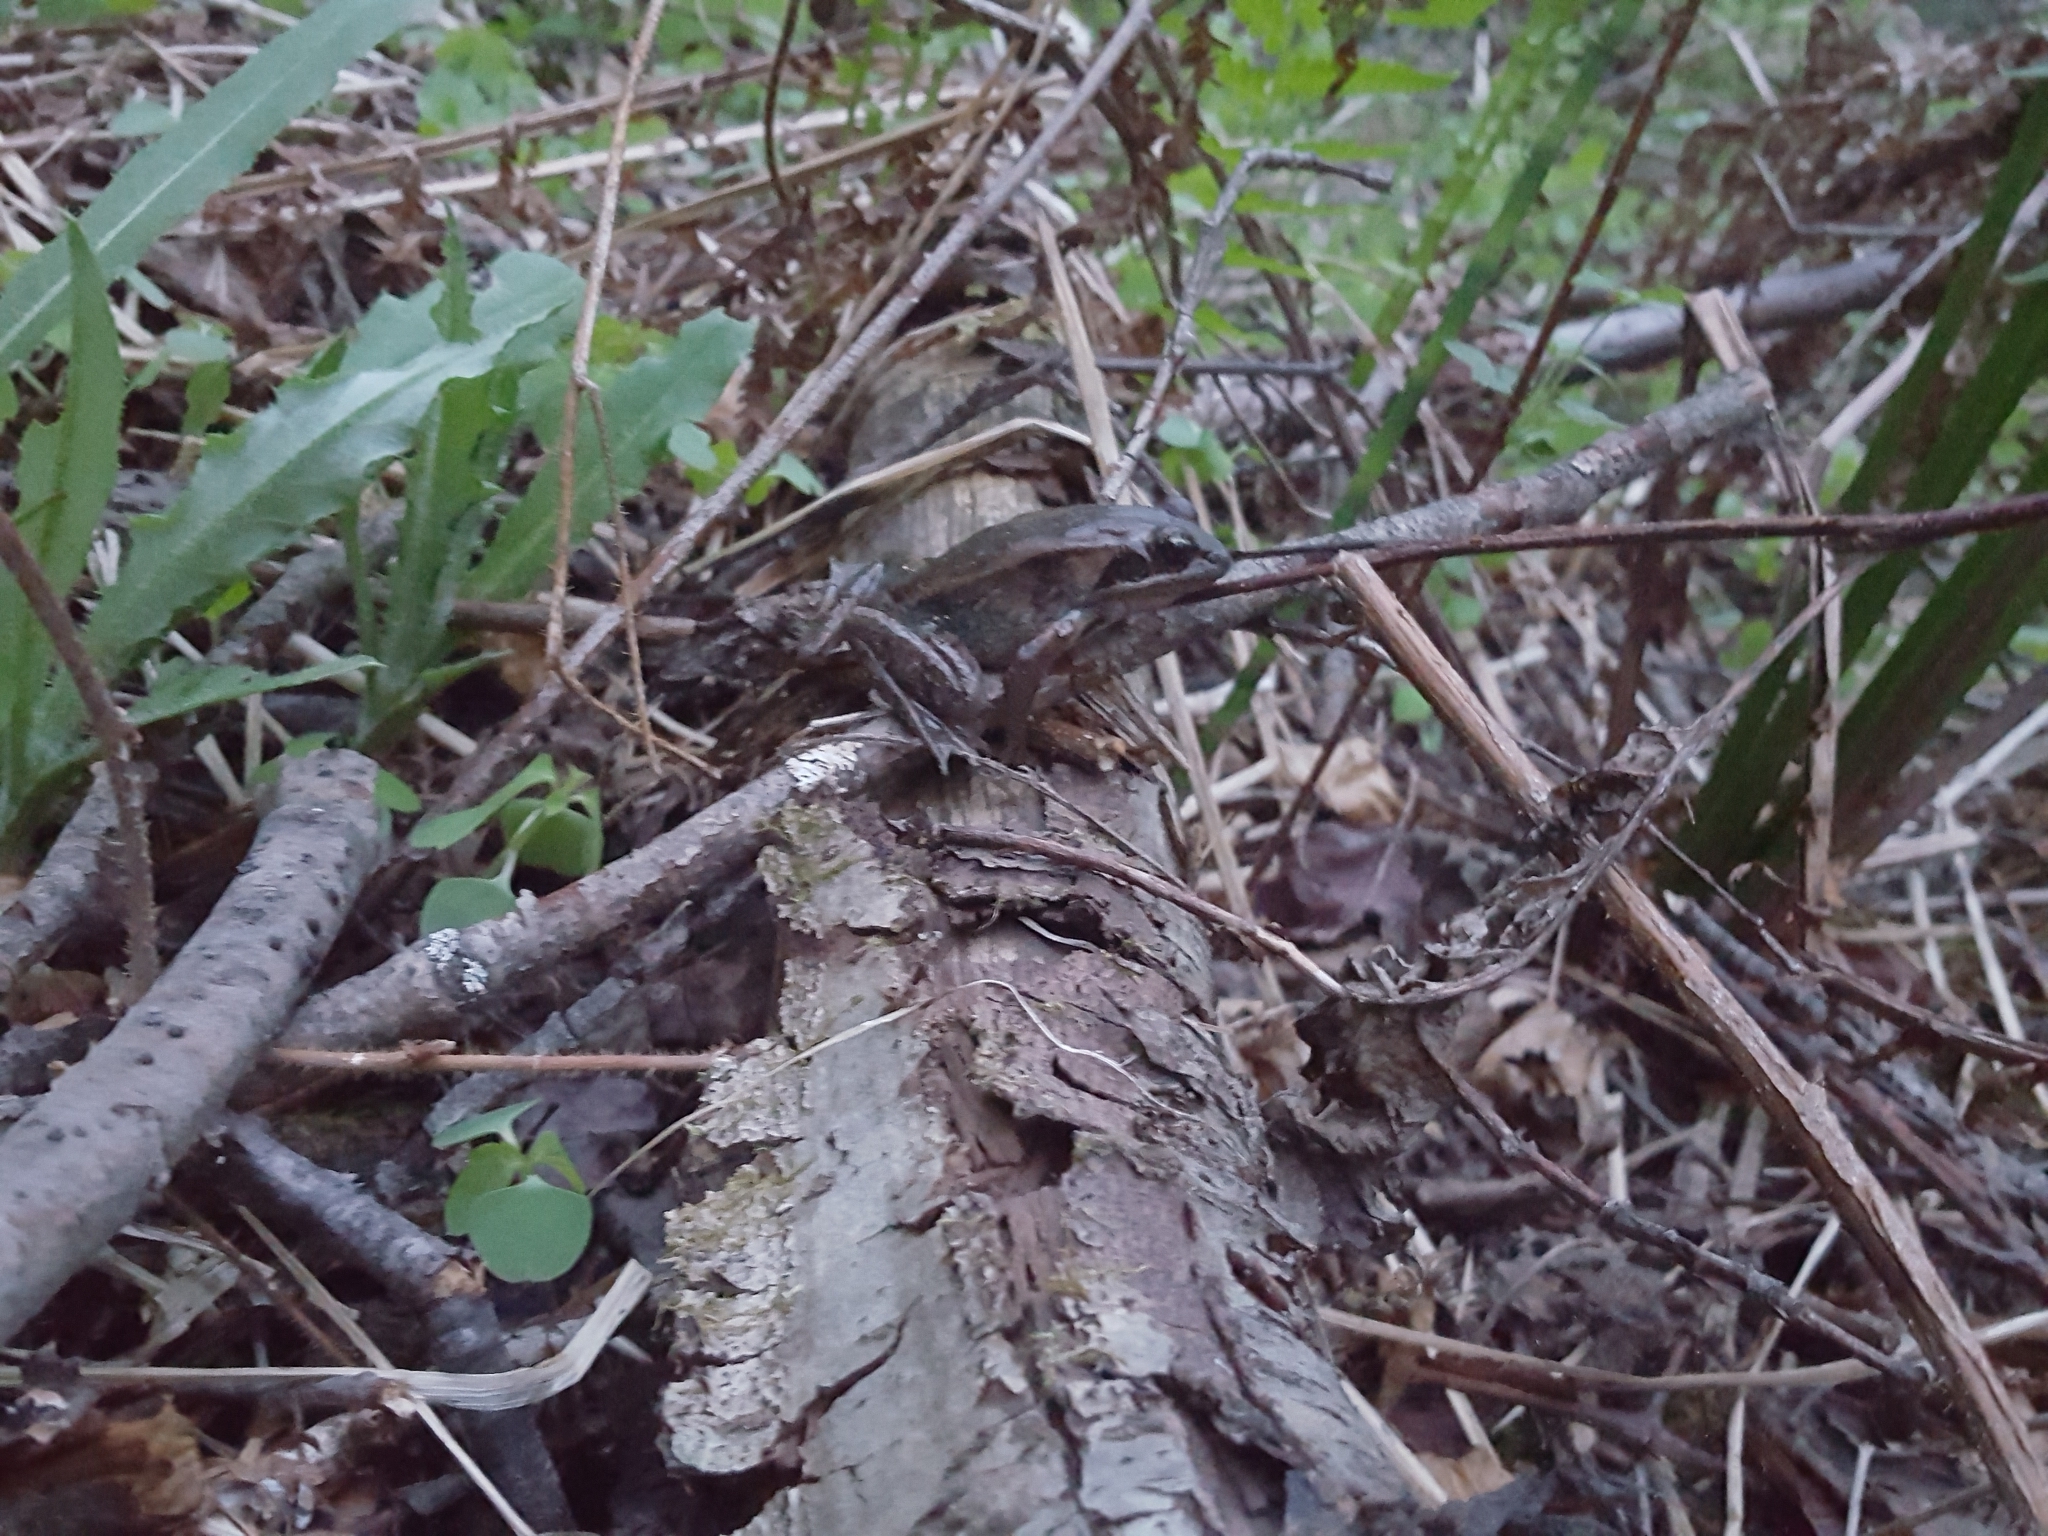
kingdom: Animalia
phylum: Chordata
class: Amphibia
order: Anura
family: Ranidae
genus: Lithobates
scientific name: Lithobates sylvaticus
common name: Wood frog
